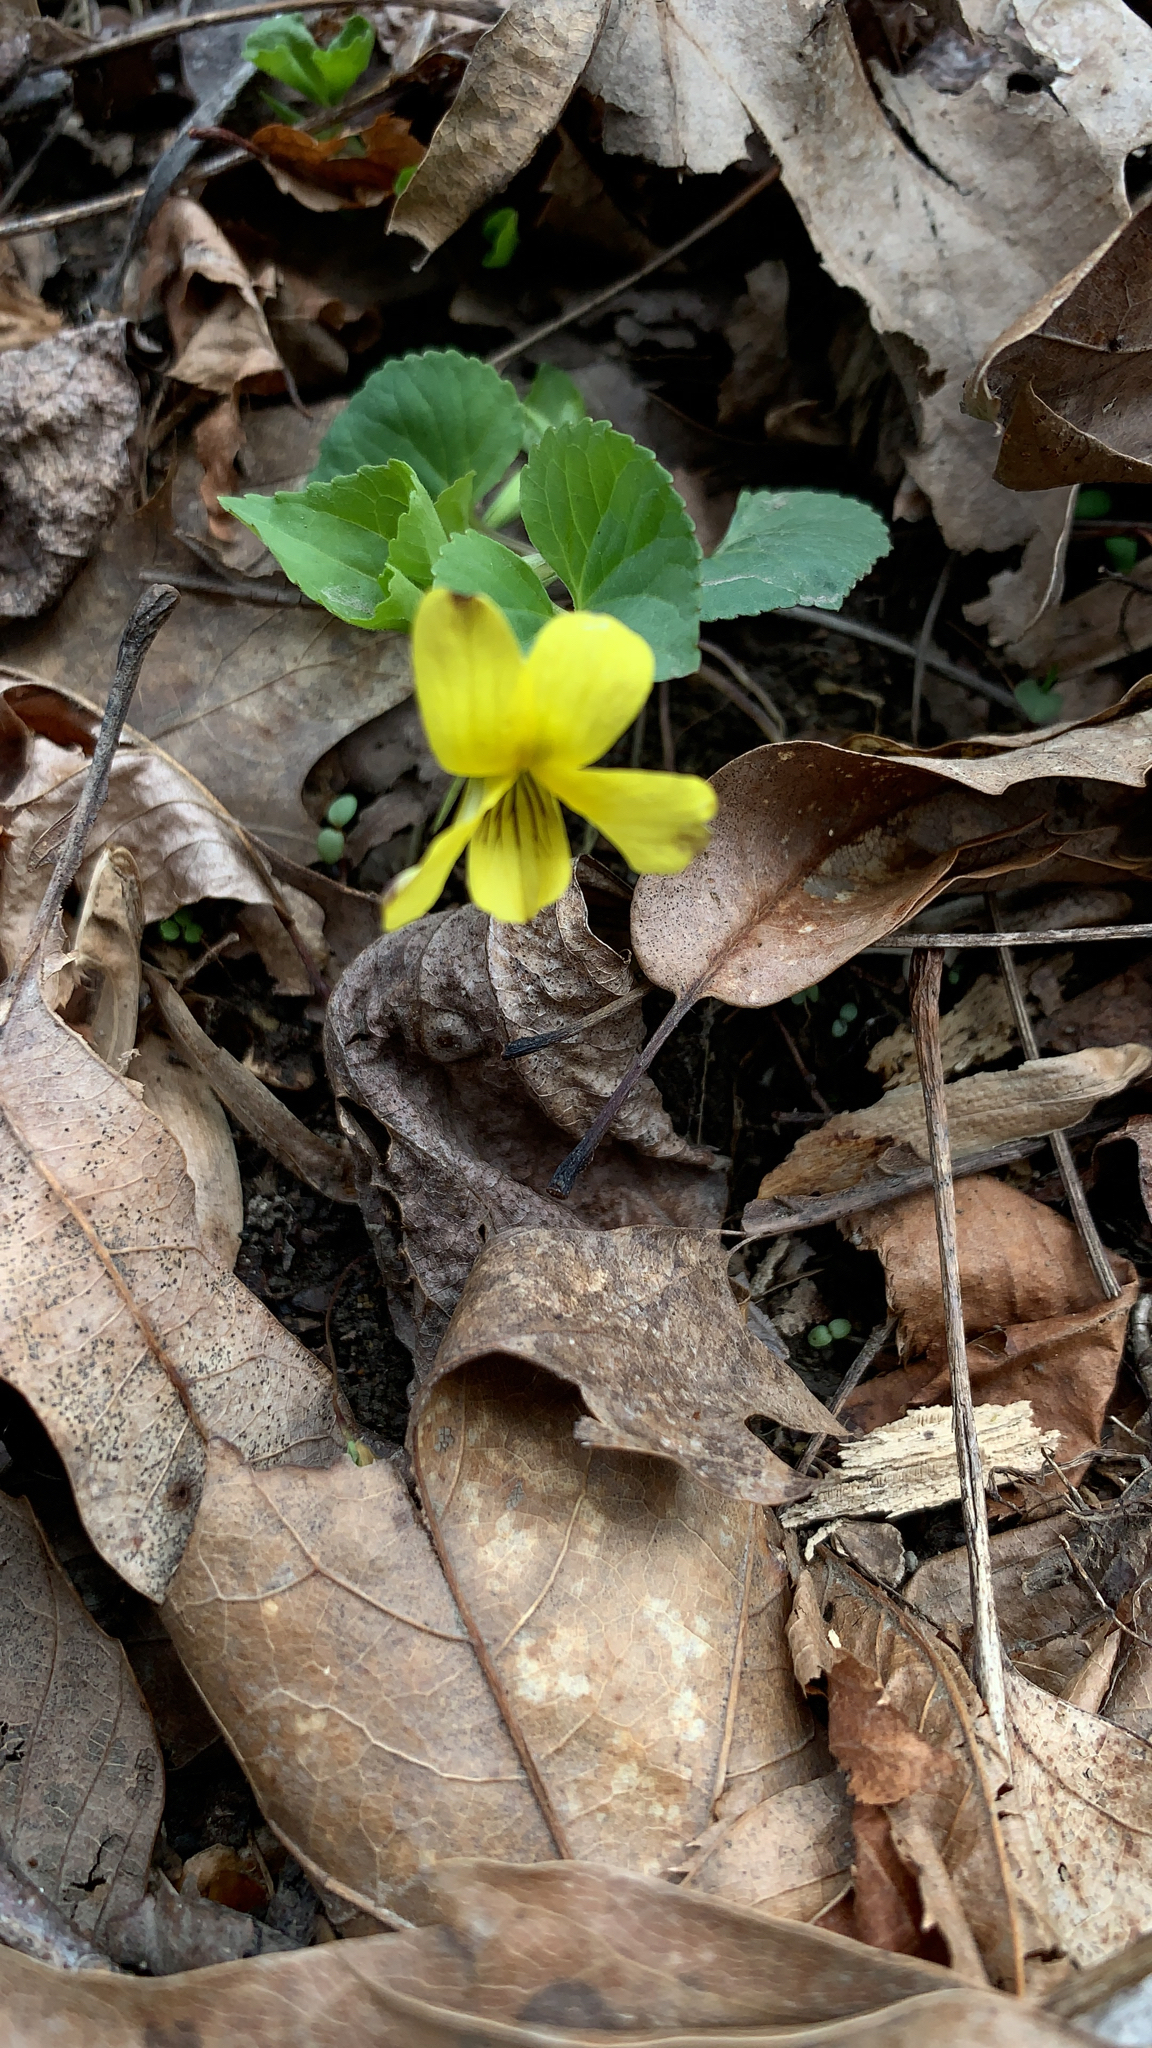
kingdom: Plantae
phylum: Tracheophyta
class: Magnoliopsida
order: Malpighiales
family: Violaceae
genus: Viola
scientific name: Viola eriocarpa
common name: Smooth yellow violet
